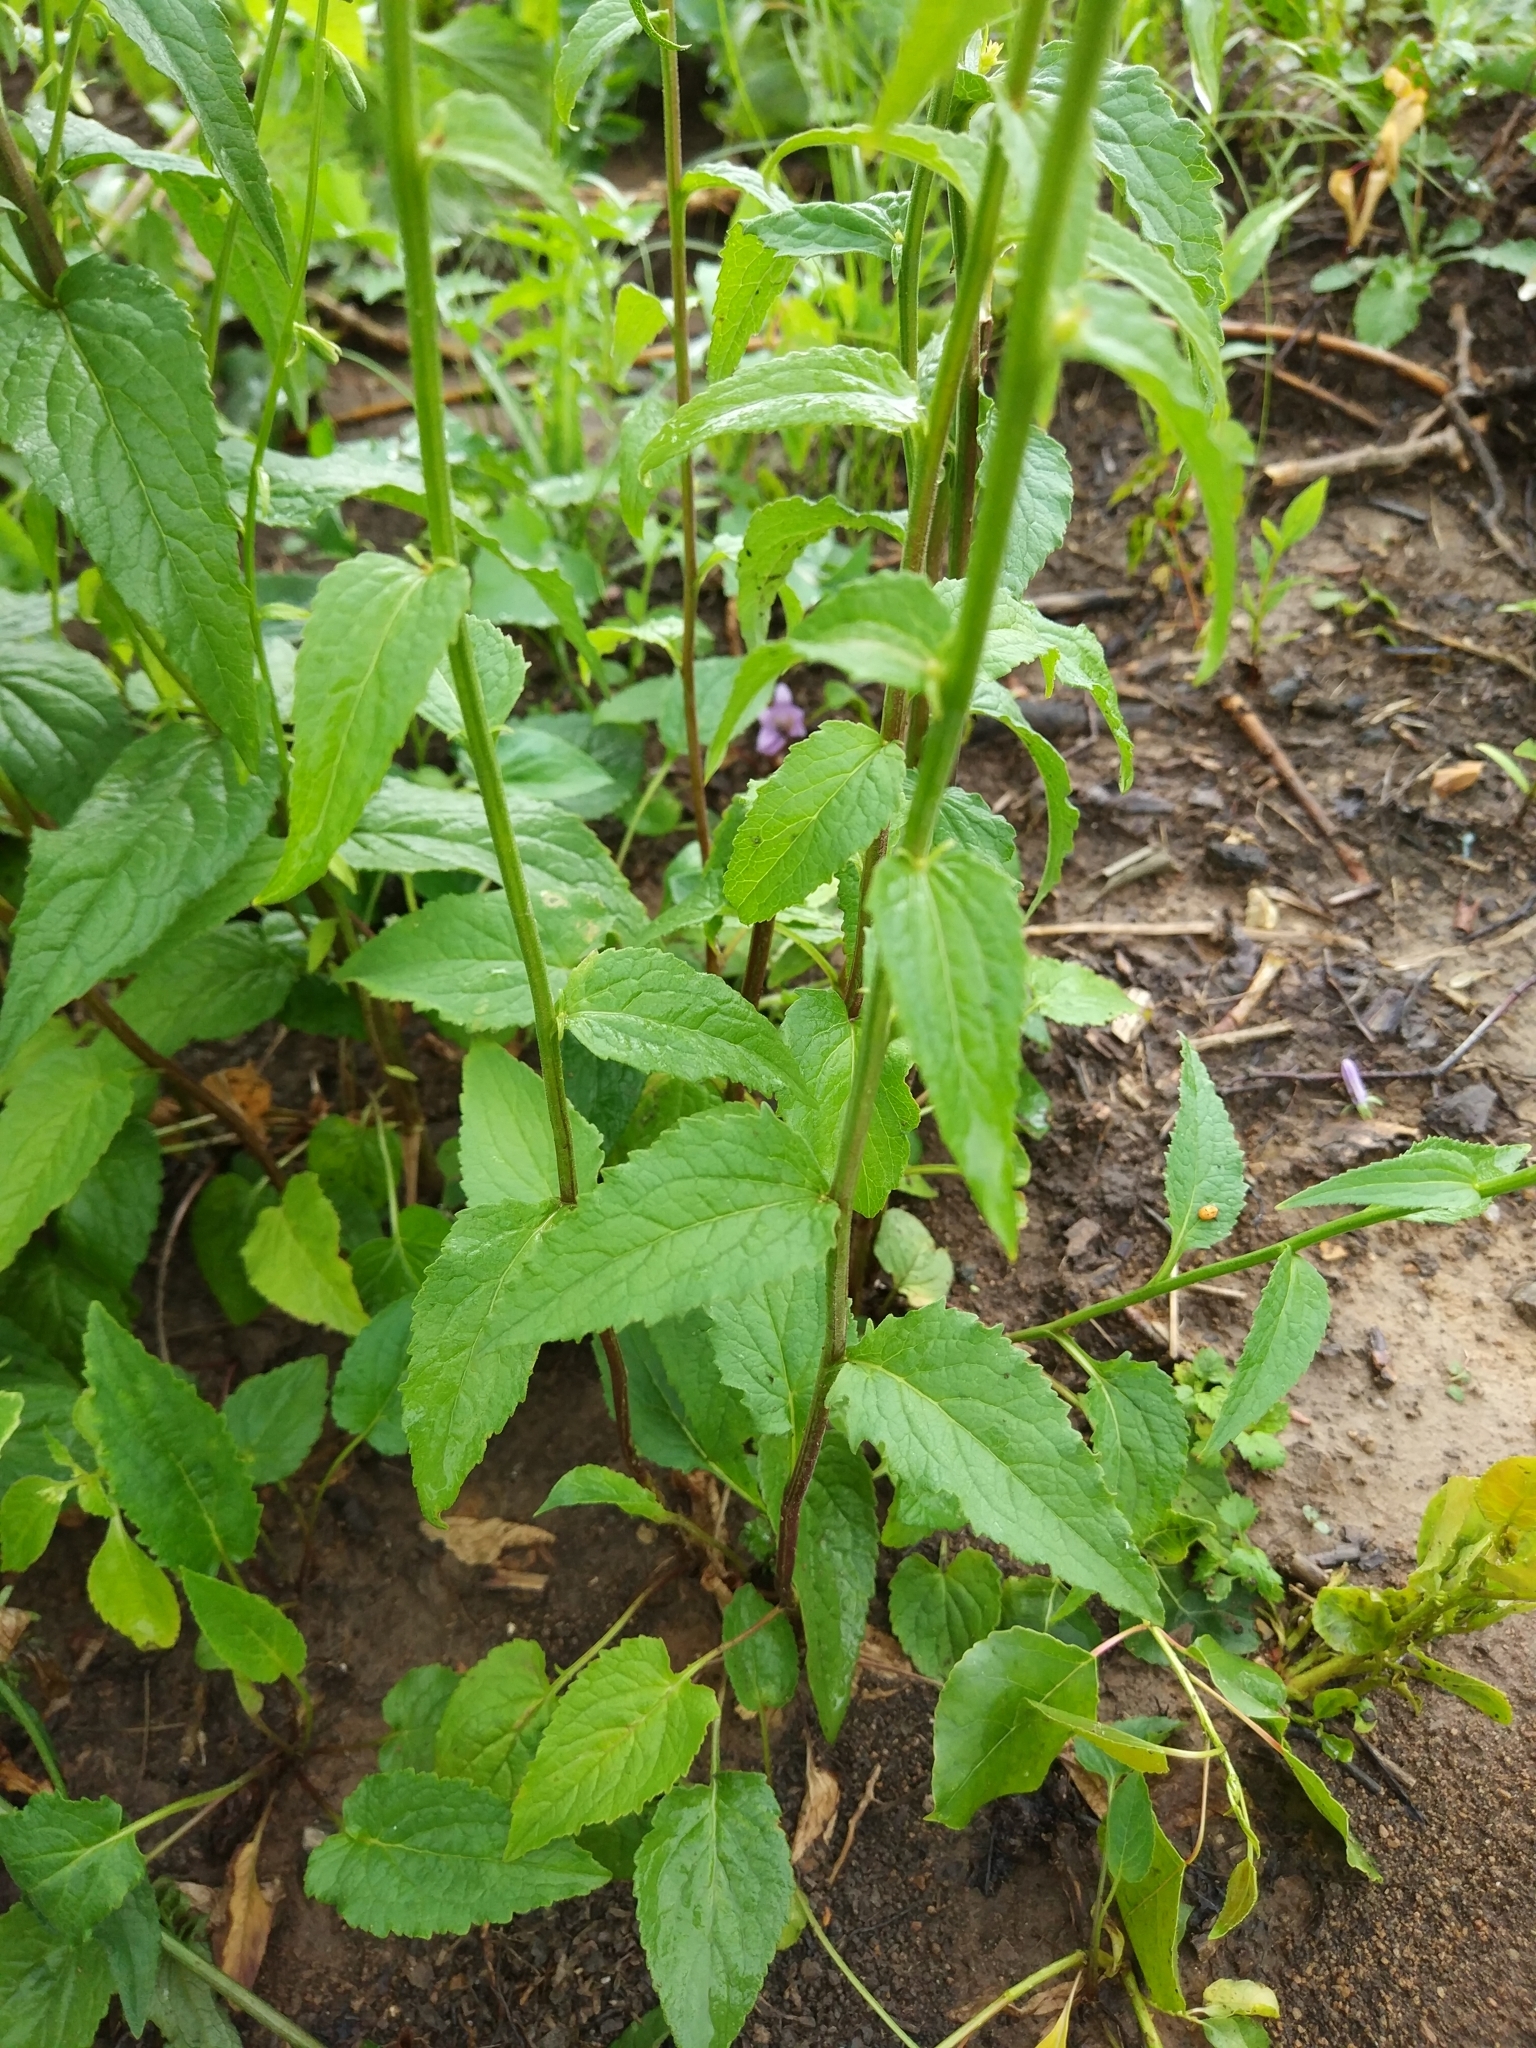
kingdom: Plantae
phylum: Tracheophyta
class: Magnoliopsida
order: Asterales
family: Campanulaceae
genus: Campanula
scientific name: Campanula rapunculoides
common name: Creeping bellflower
